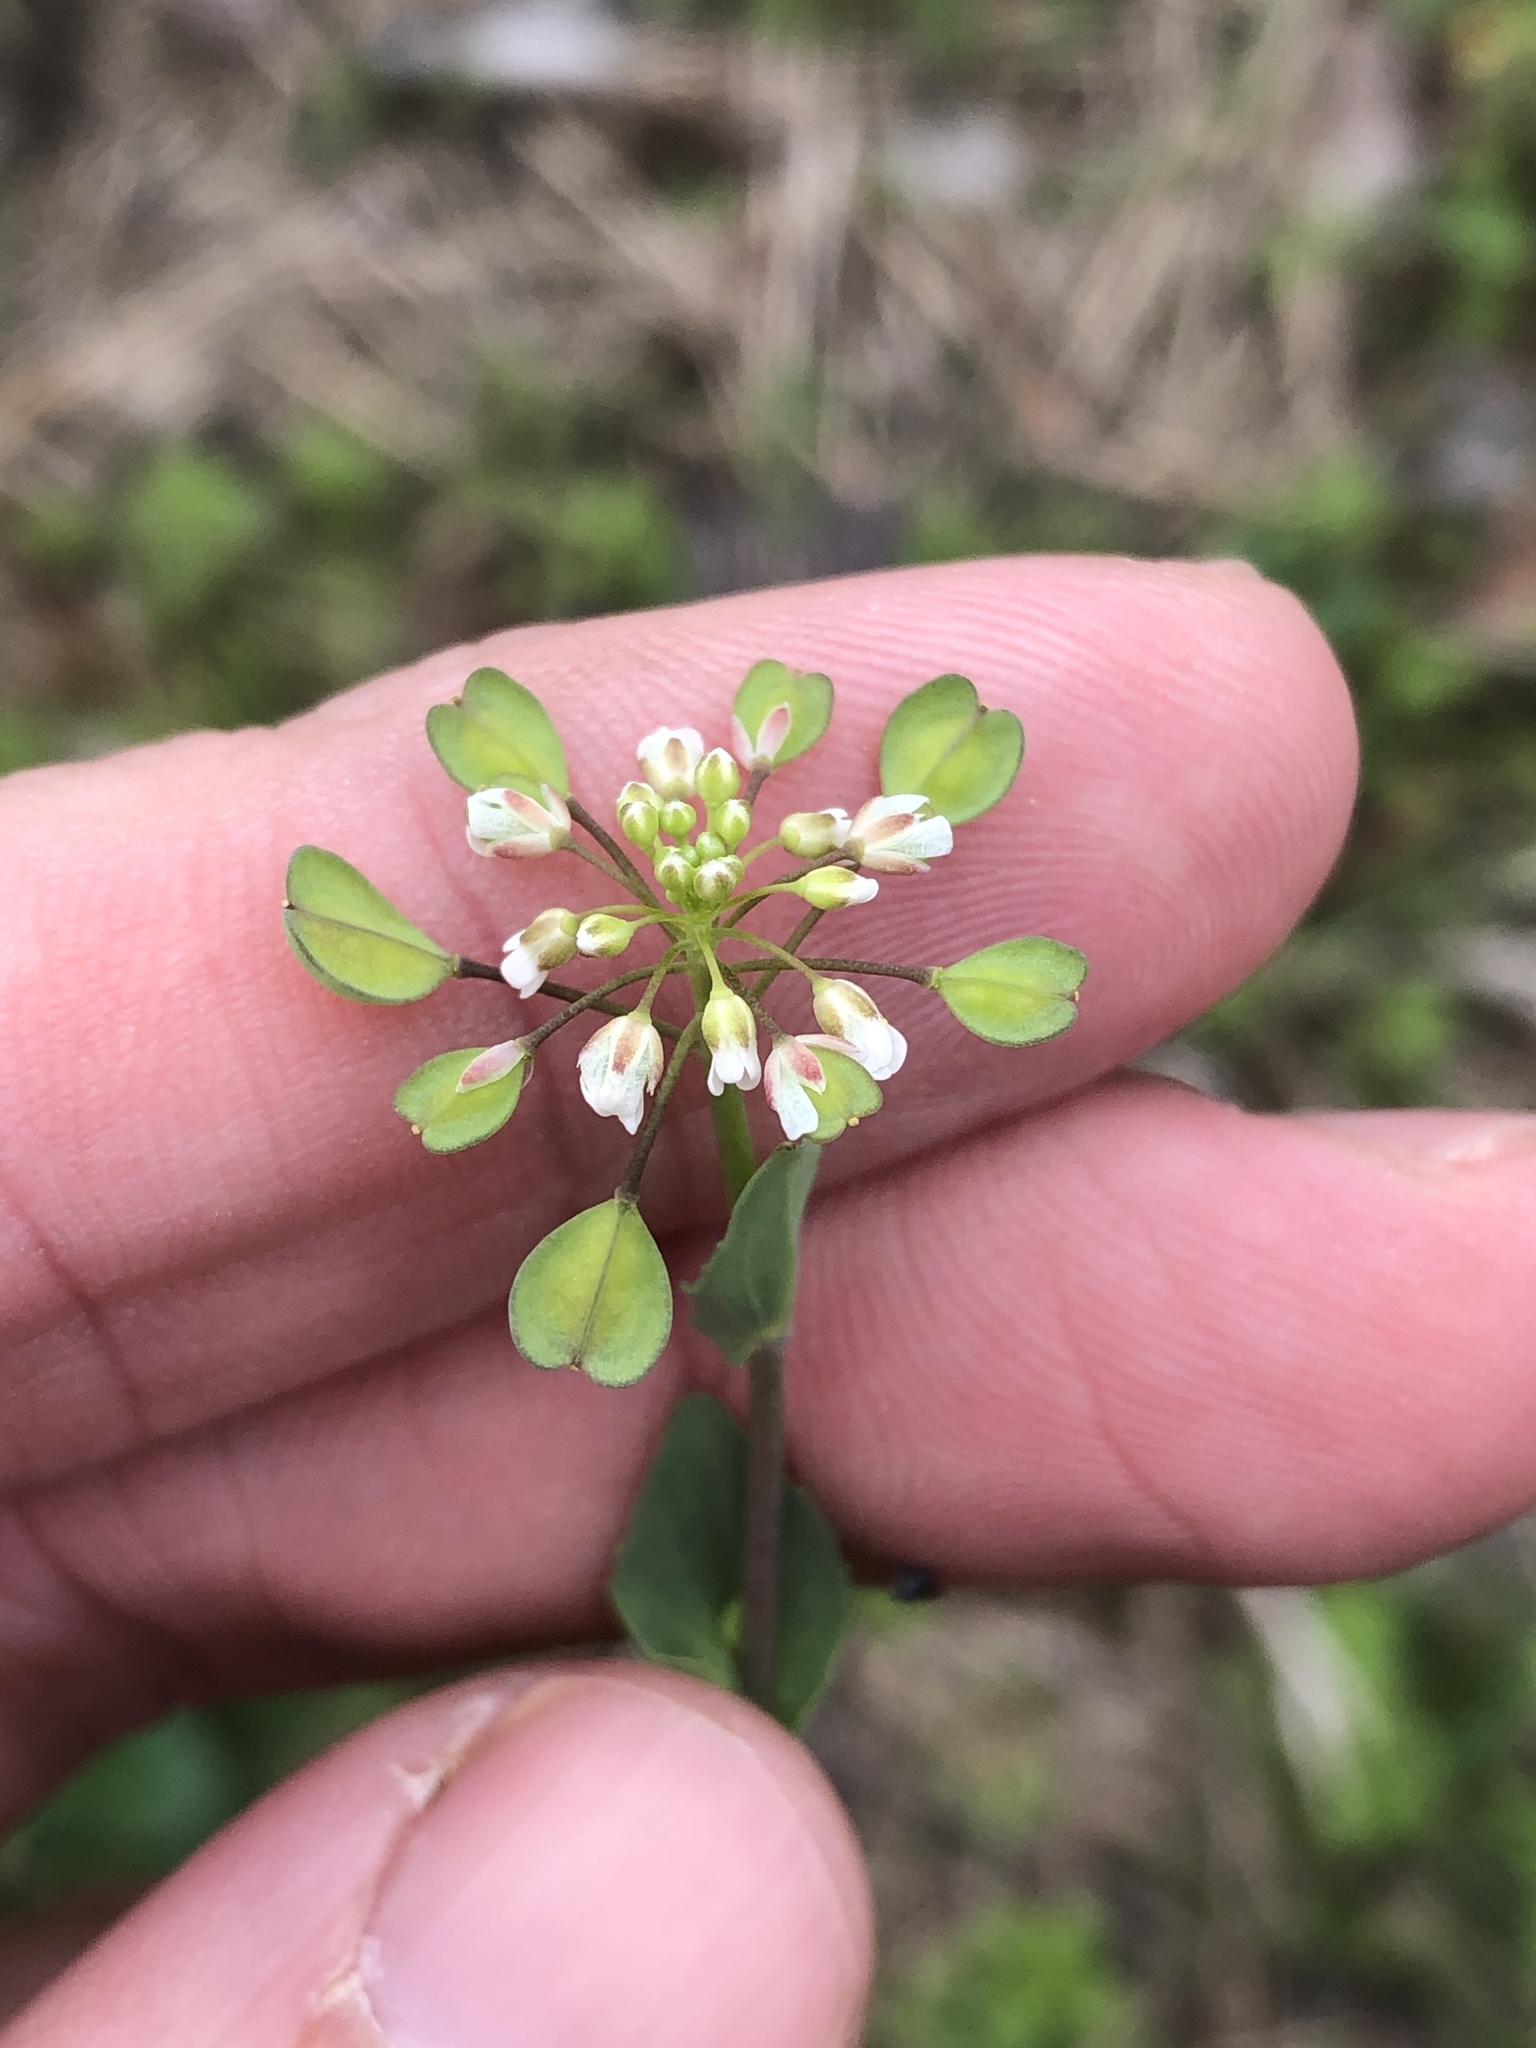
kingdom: Plantae
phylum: Tracheophyta
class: Magnoliopsida
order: Brassicales
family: Brassicaceae
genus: Noccaea
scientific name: Noccaea perfoliata
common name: Perfoliate pennycress
